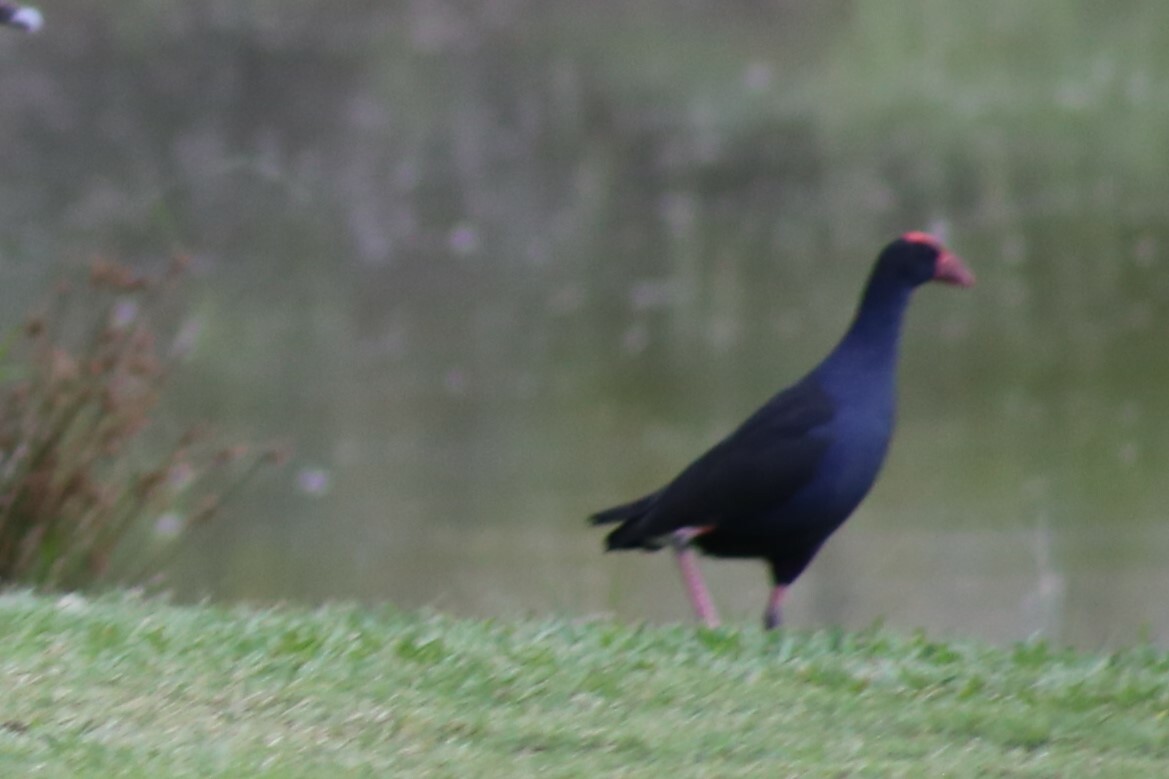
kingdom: Animalia
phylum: Chordata
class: Aves
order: Gruiformes
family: Rallidae
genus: Porphyrio
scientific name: Porphyrio melanotus
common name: Australasian swamphen
